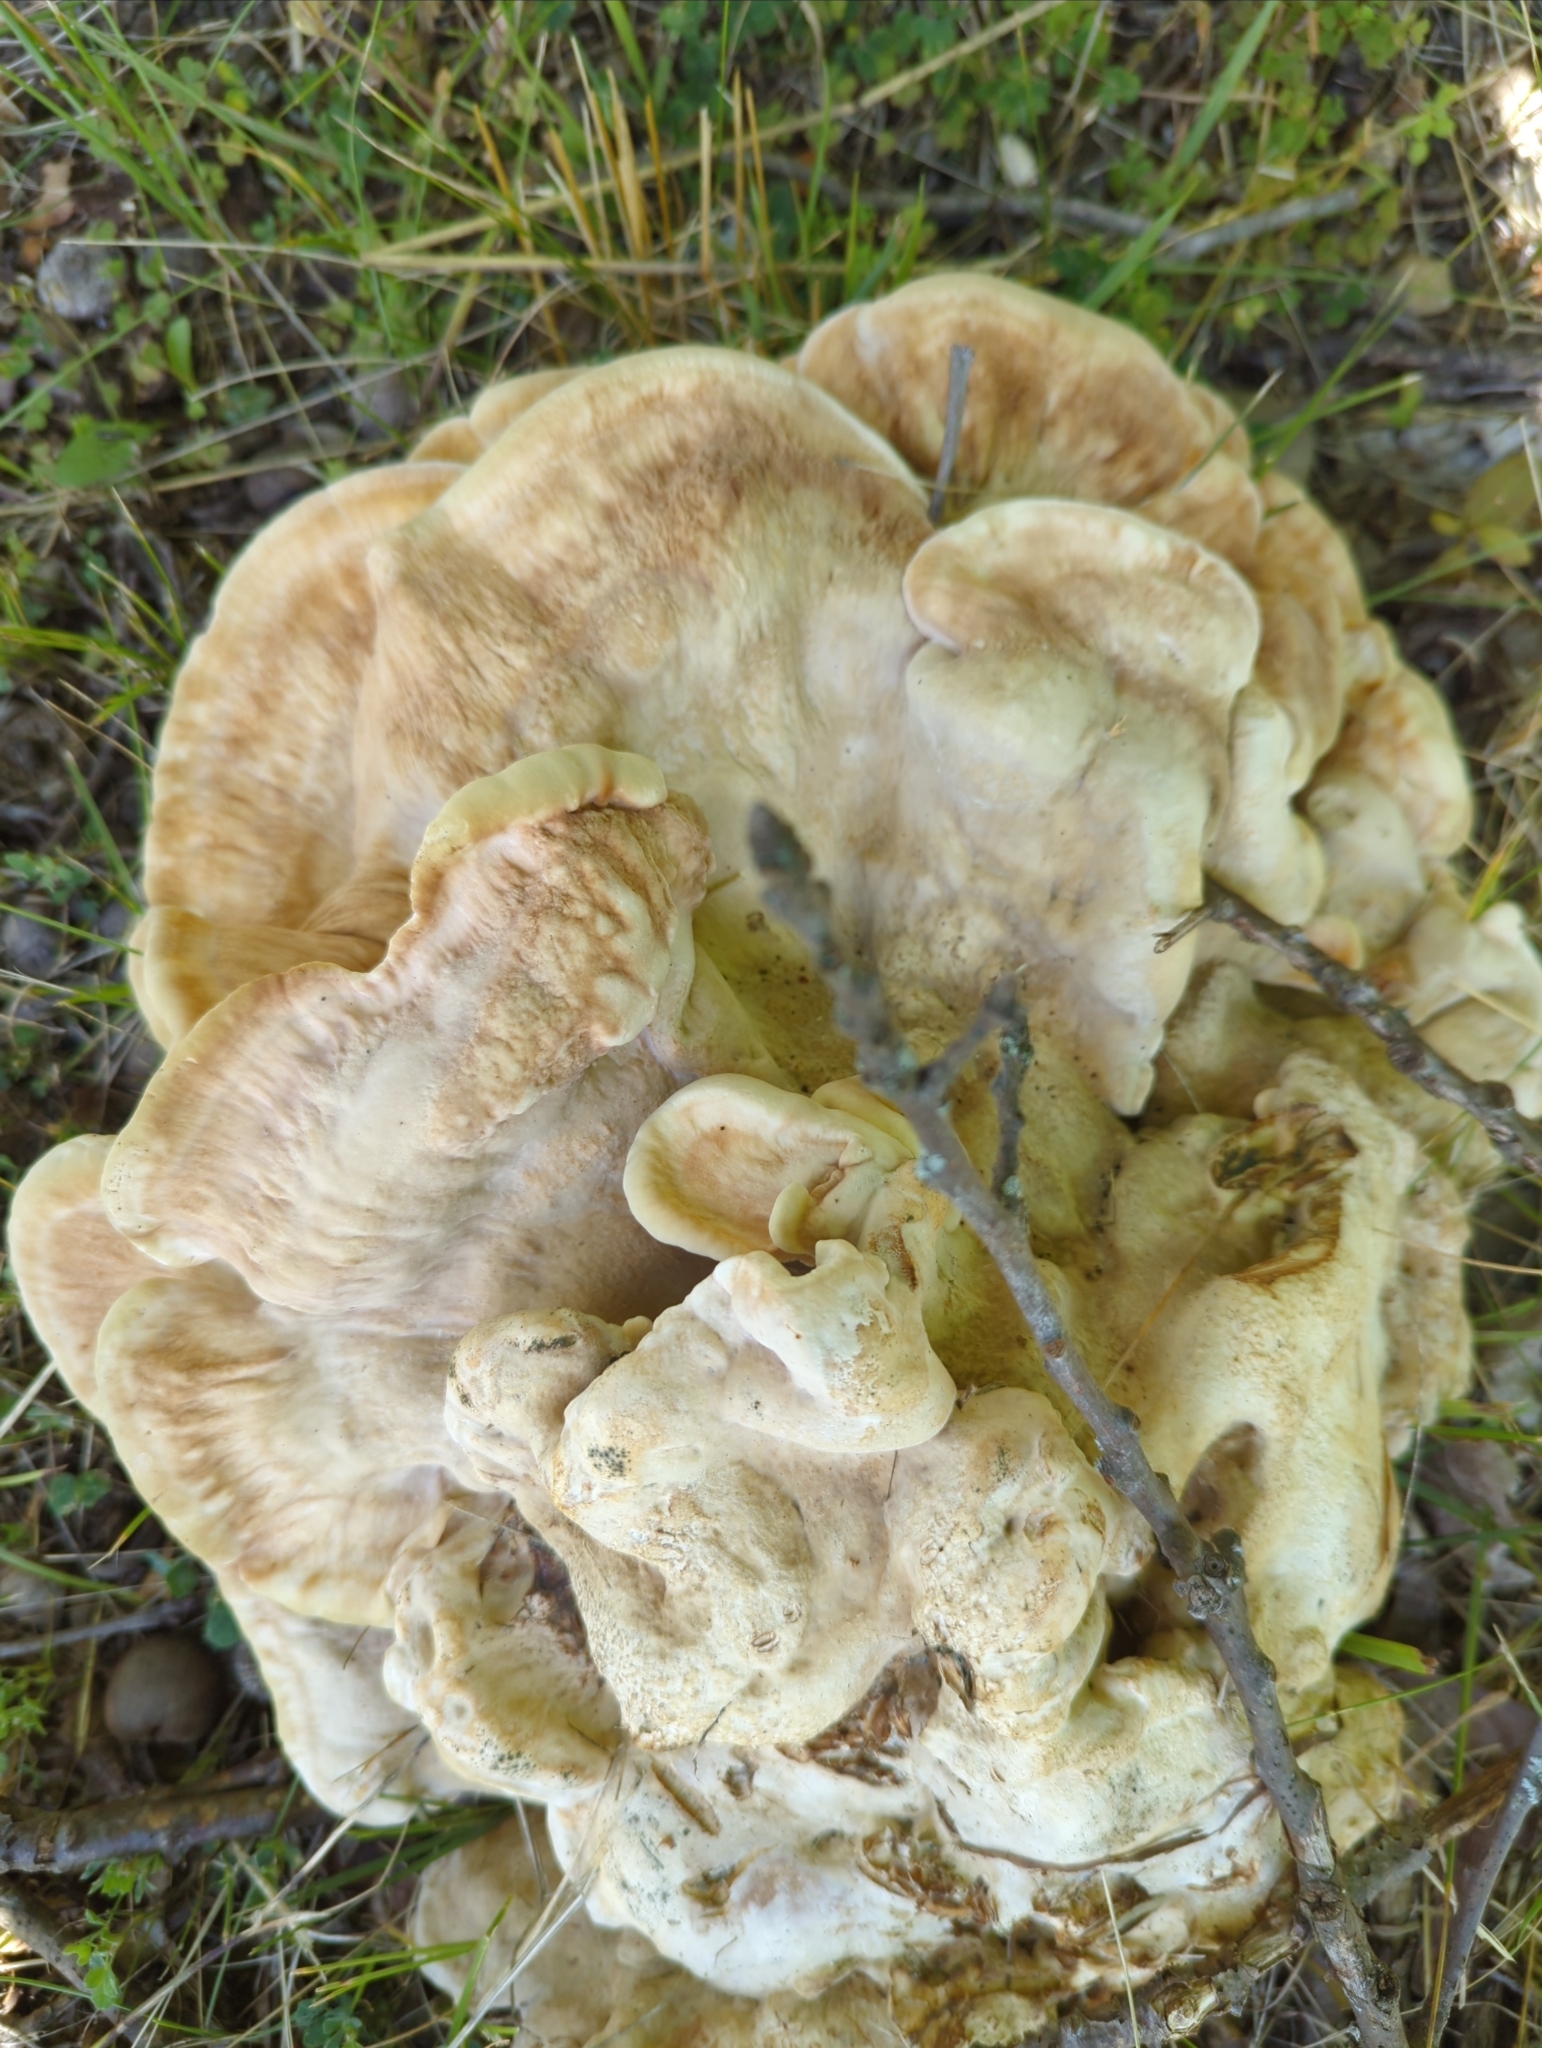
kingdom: Fungi
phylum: Basidiomycota
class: Agaricomycetes
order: Russulales
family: Bondarzewiaceae
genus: Bondarzewia
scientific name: Bondarzewia berkeleyi
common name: Berkeley's polypore
